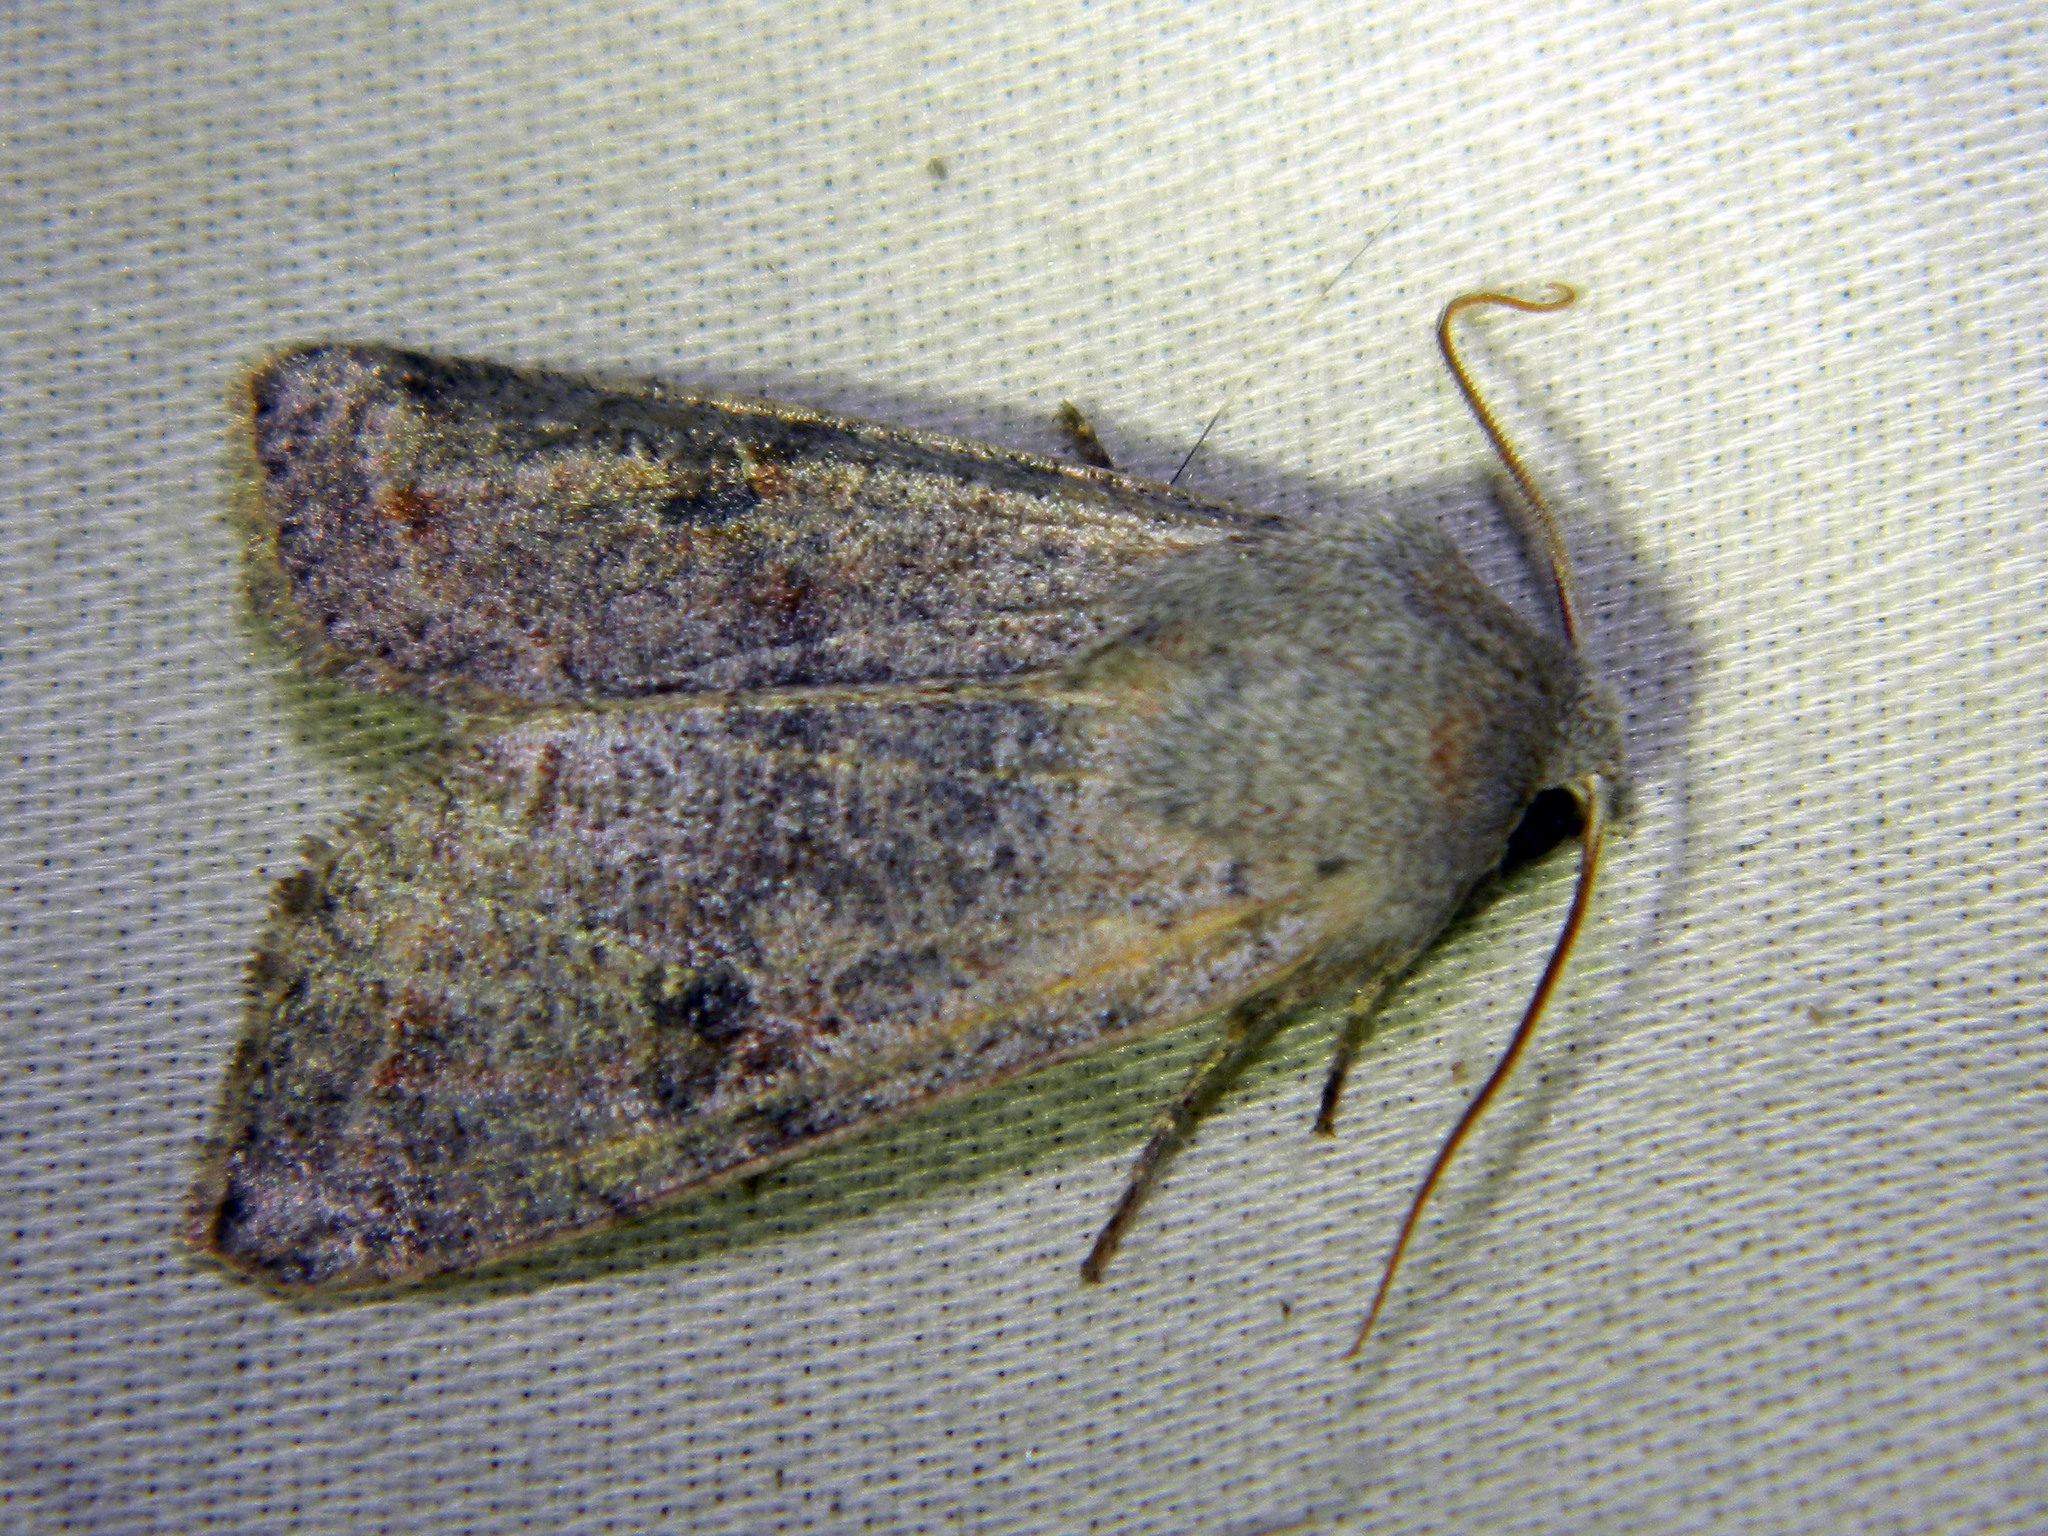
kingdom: Animalia
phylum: Arthropoda
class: Insecta
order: Lepidoptera
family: Noctuidae
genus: Orthosia
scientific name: Orthosia hibisci
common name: Green fruitworm
